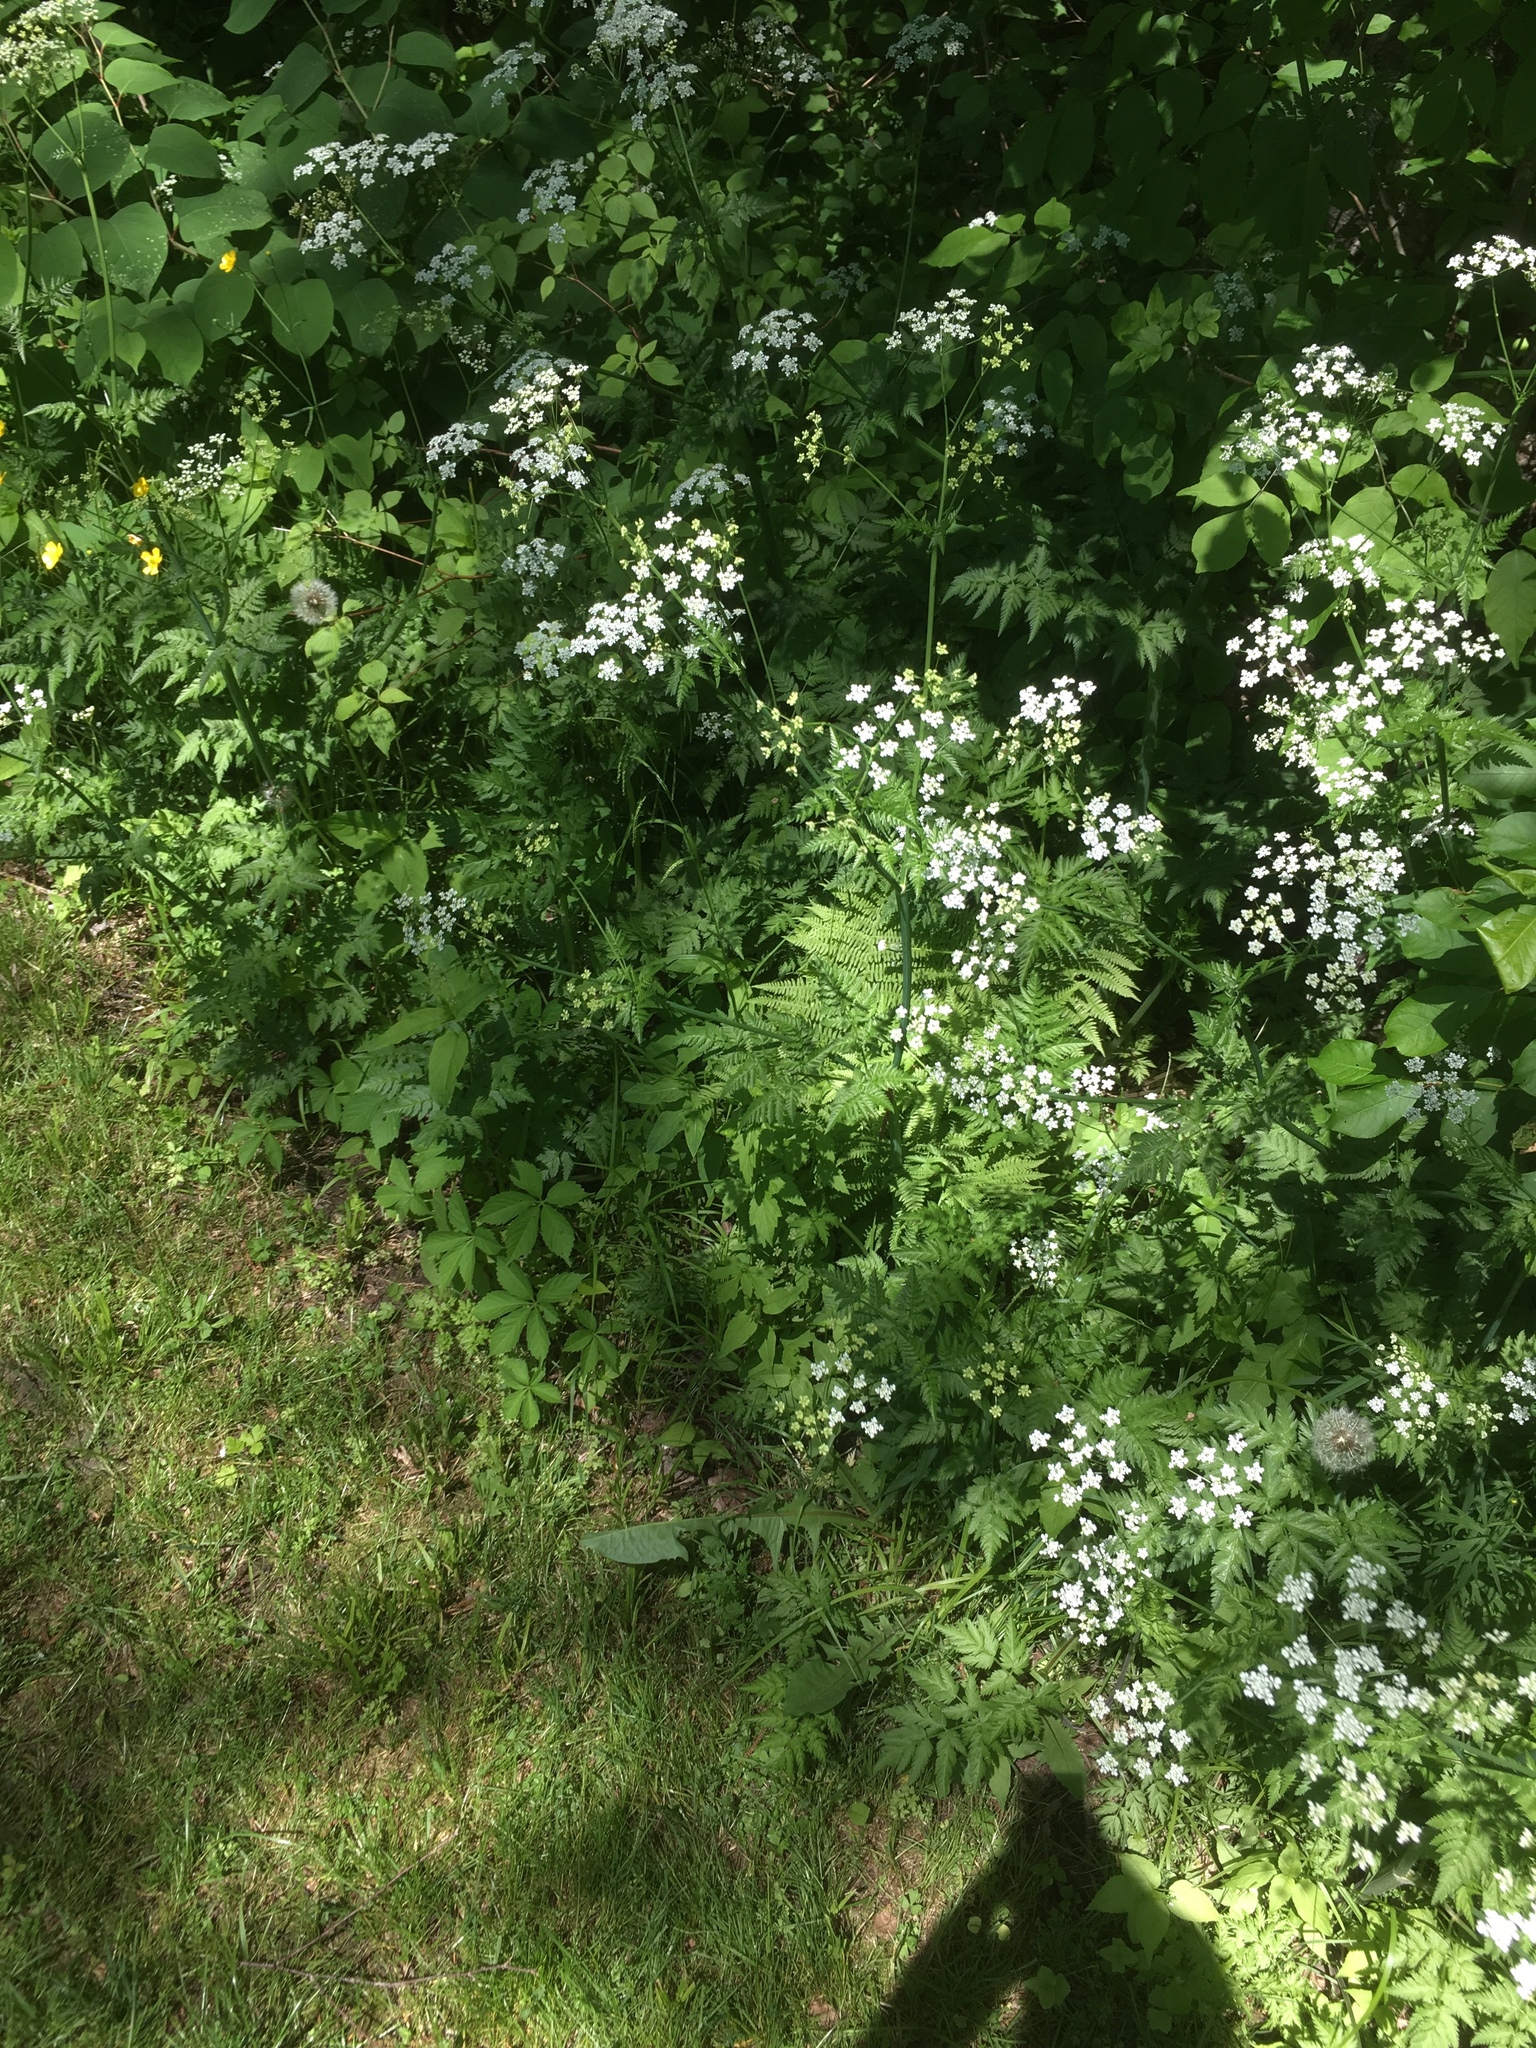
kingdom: Plantae
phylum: Tracheophyta
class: Magnoliopsida
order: Apiales
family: Apiaceae
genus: Anthriscus
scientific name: Anthriscus sylvestris
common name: Cow parsley
